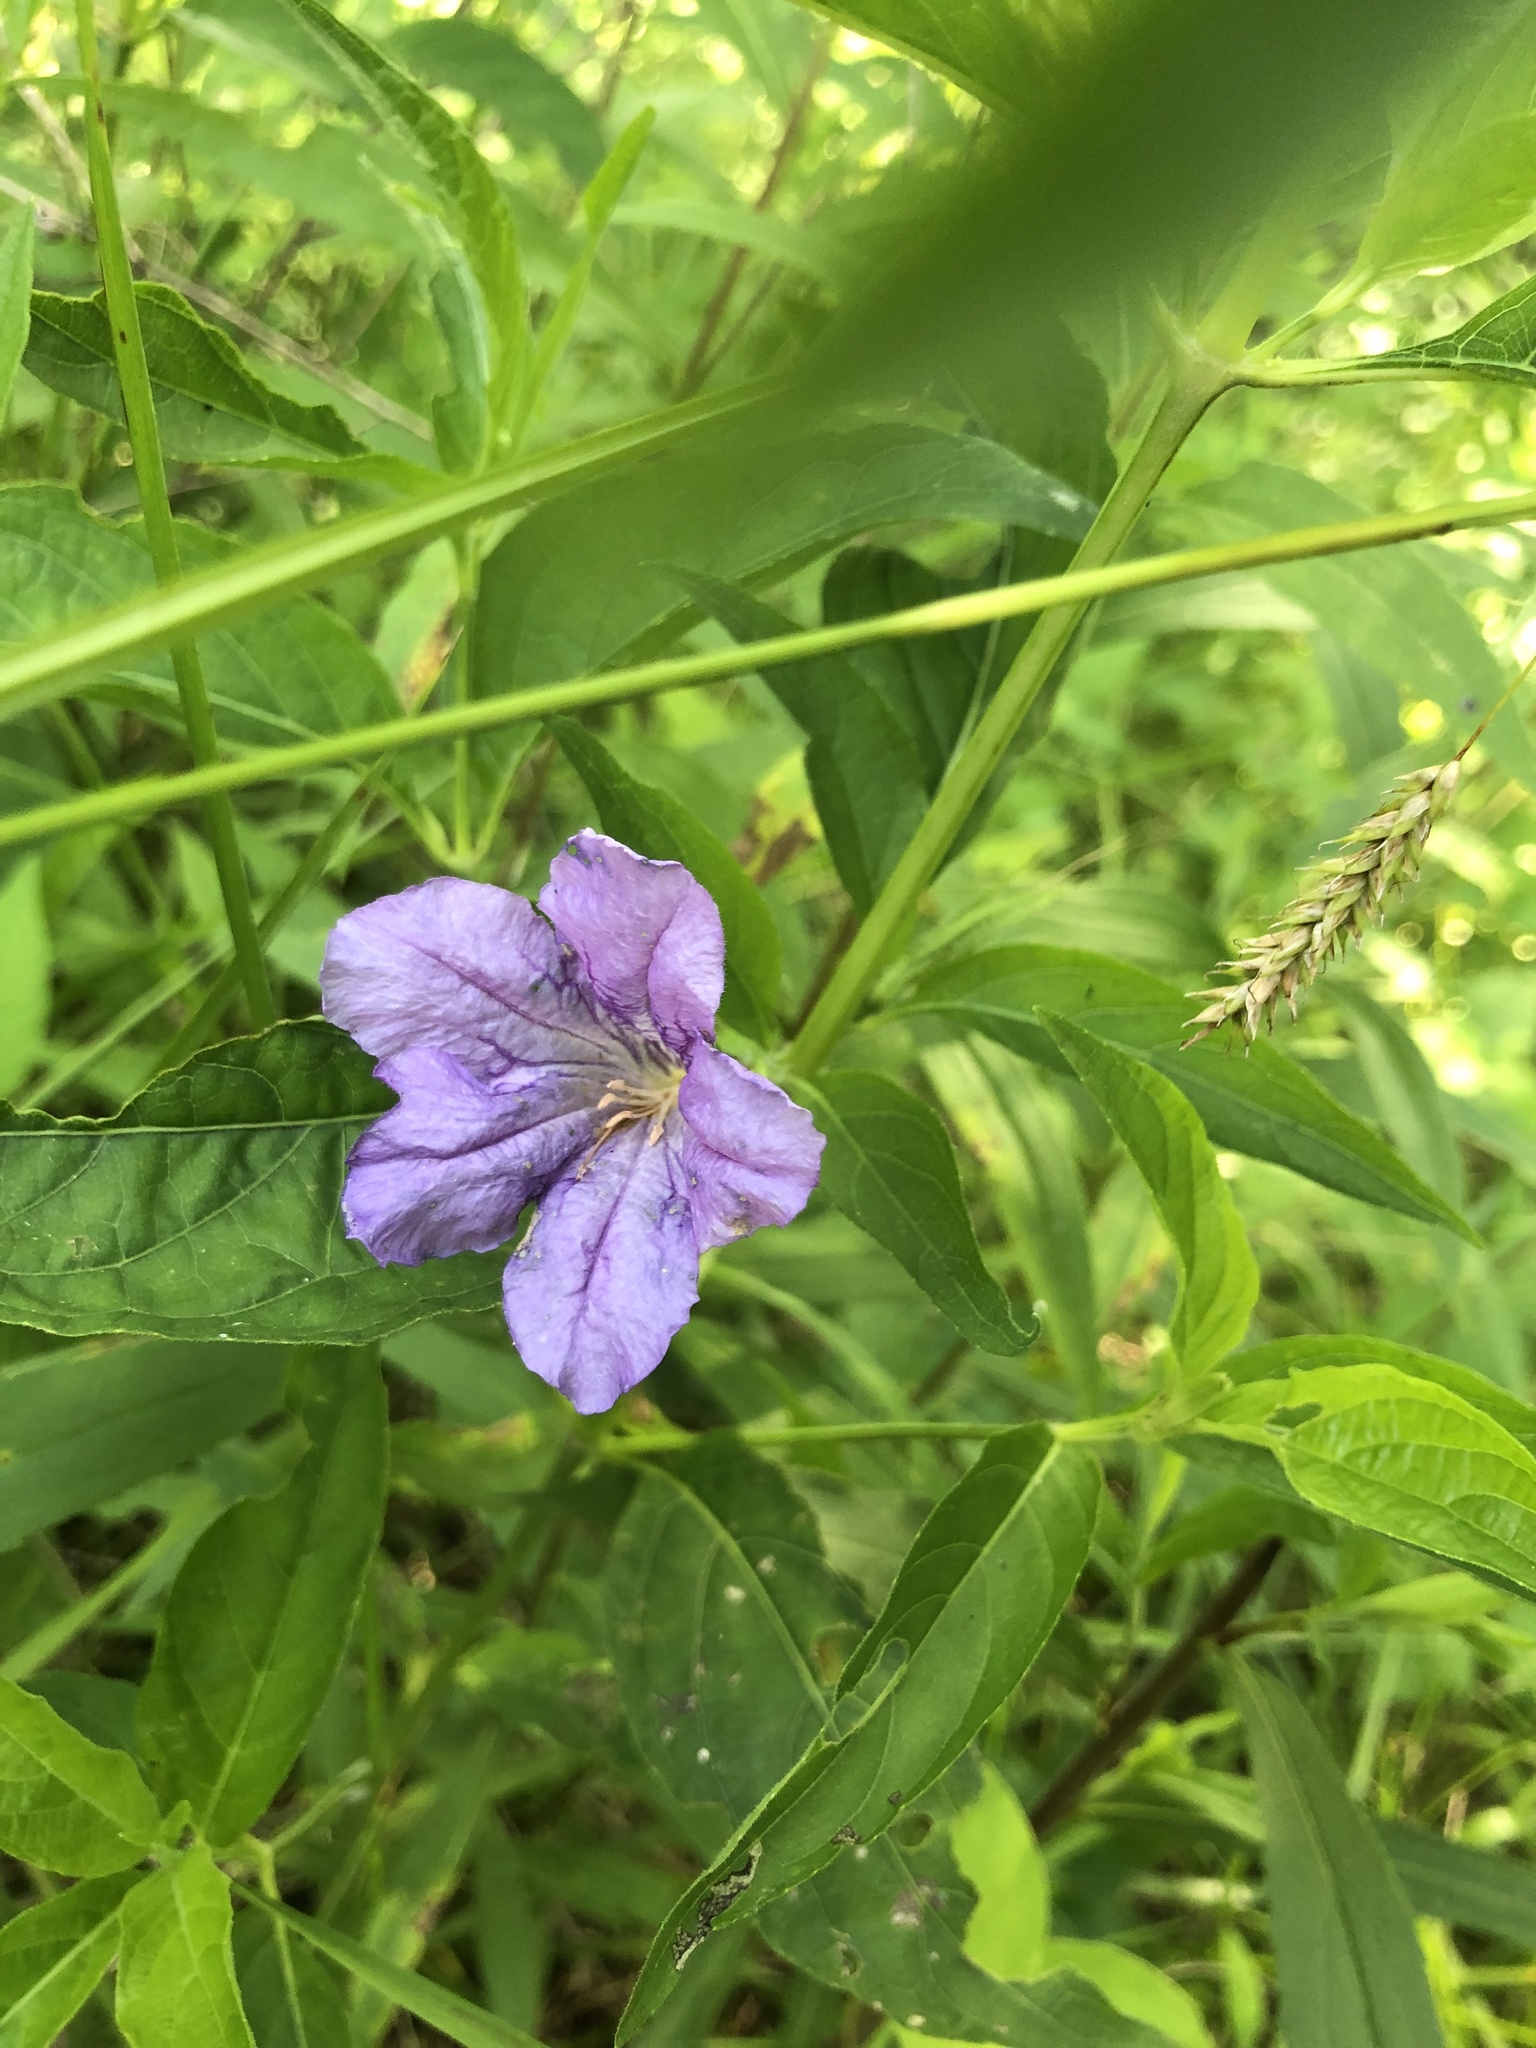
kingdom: Plantae
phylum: Tracheophyta
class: Magnoliopsida
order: Lamiales
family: Acanthaceae
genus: Ruellia
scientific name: Ruellia strepens
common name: Limestone wild petunia
